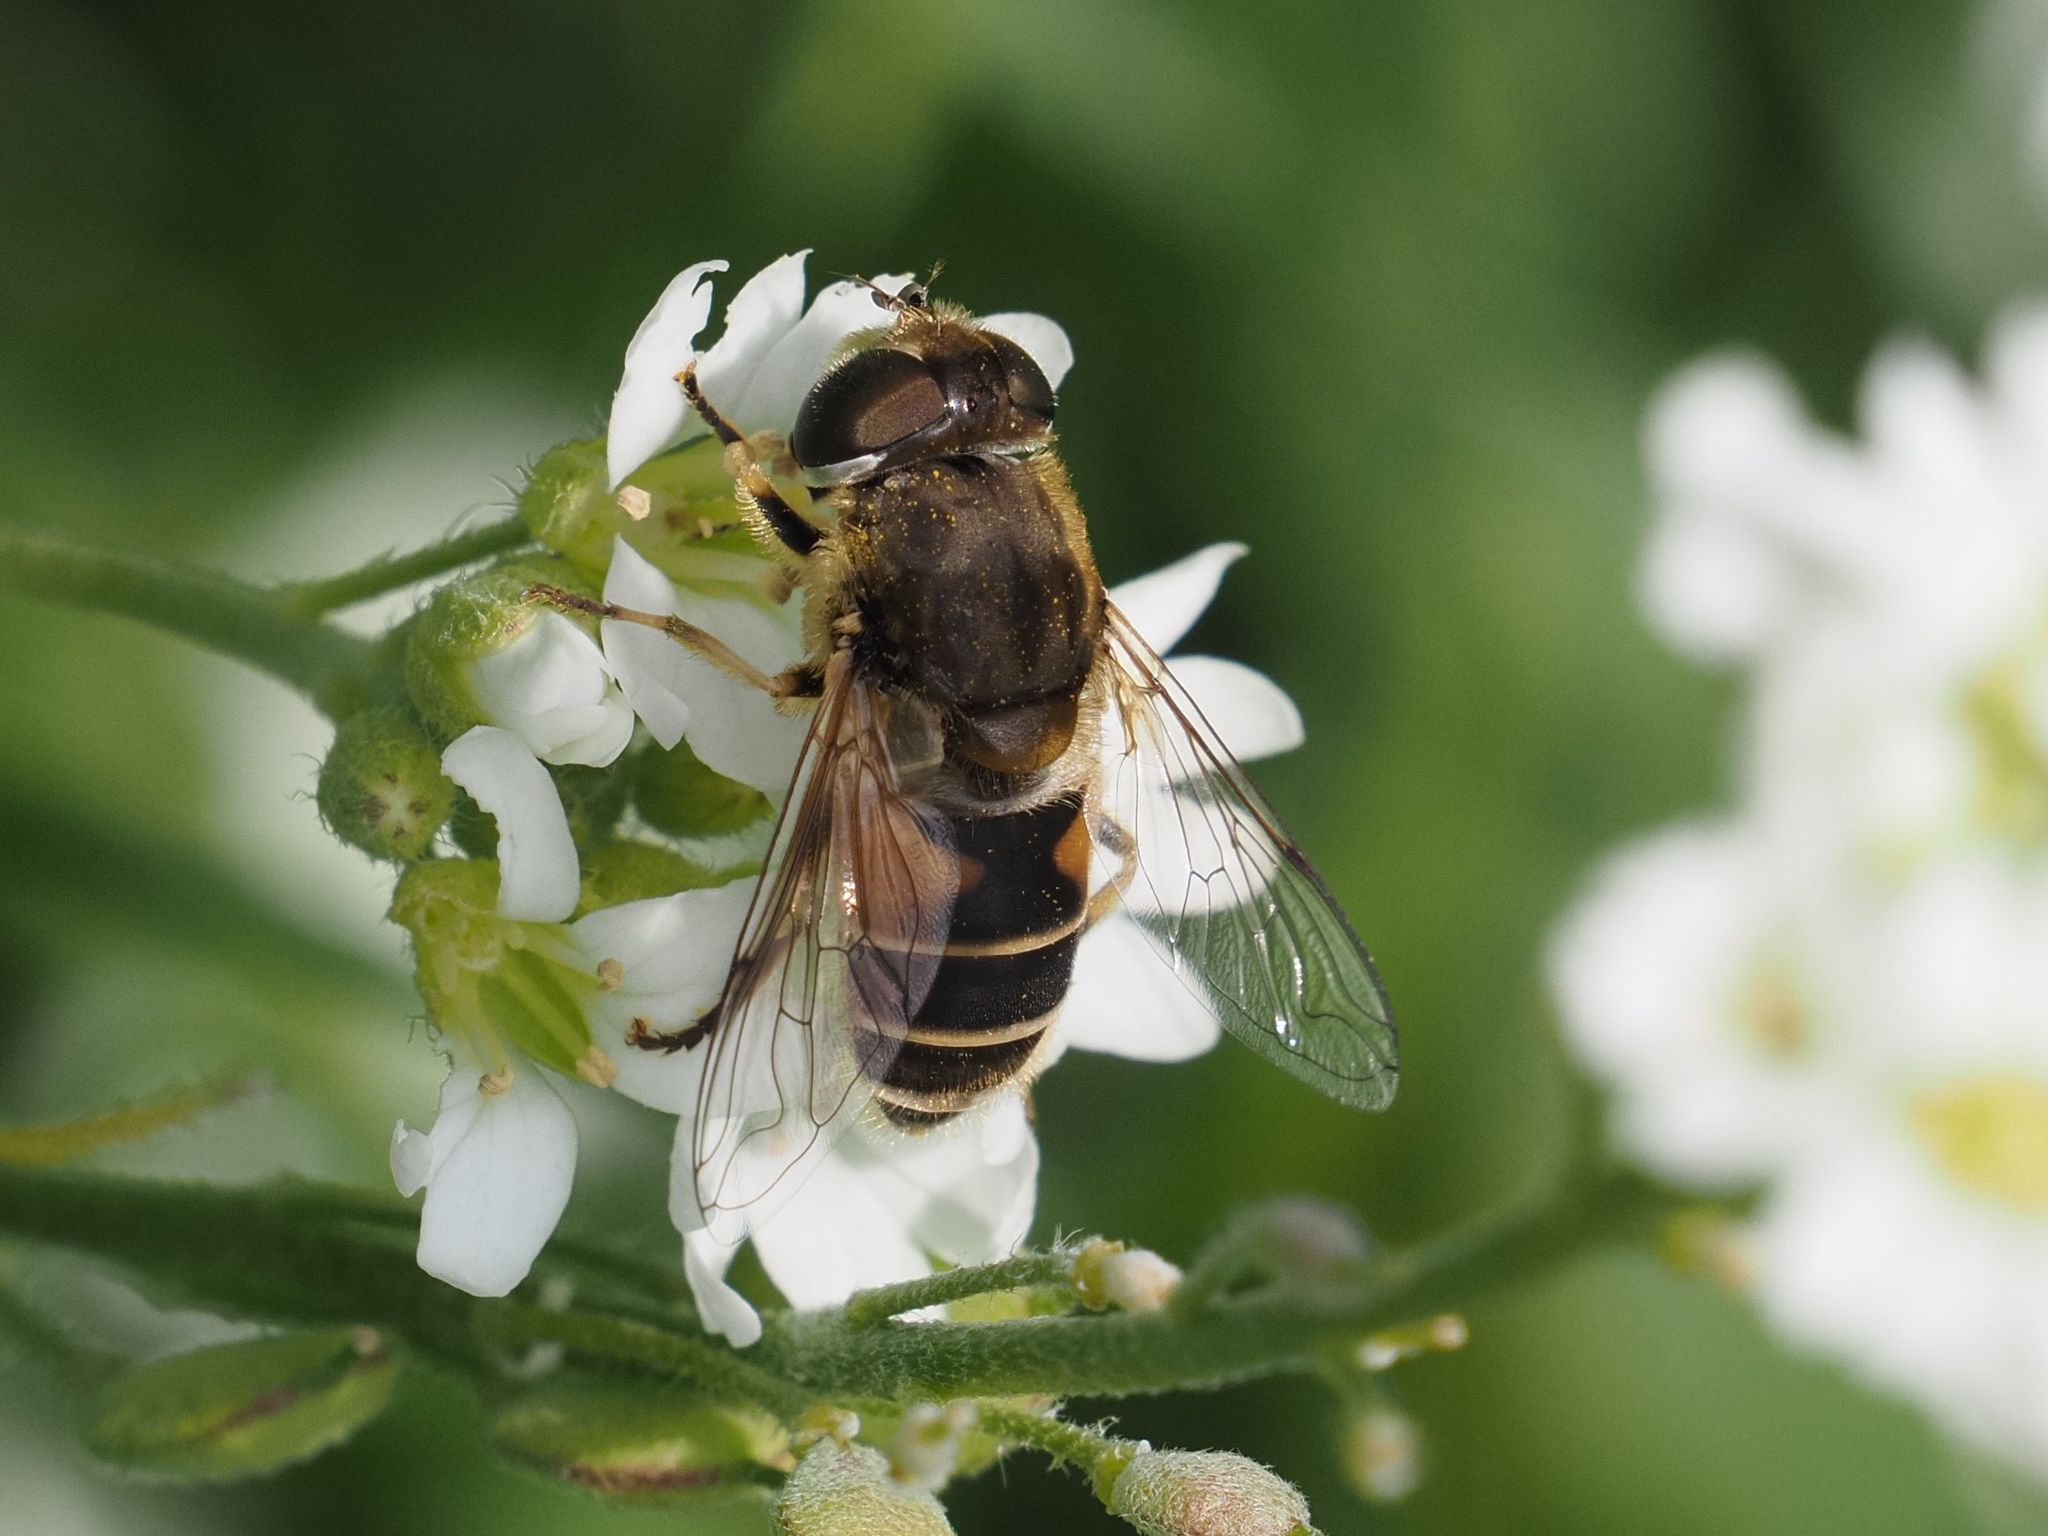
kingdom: Animalia
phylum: Arthropoda
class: Insecta
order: Diptera
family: Syrphidae
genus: Eristalis
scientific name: Eristalis arbustorum
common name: Hover fly
